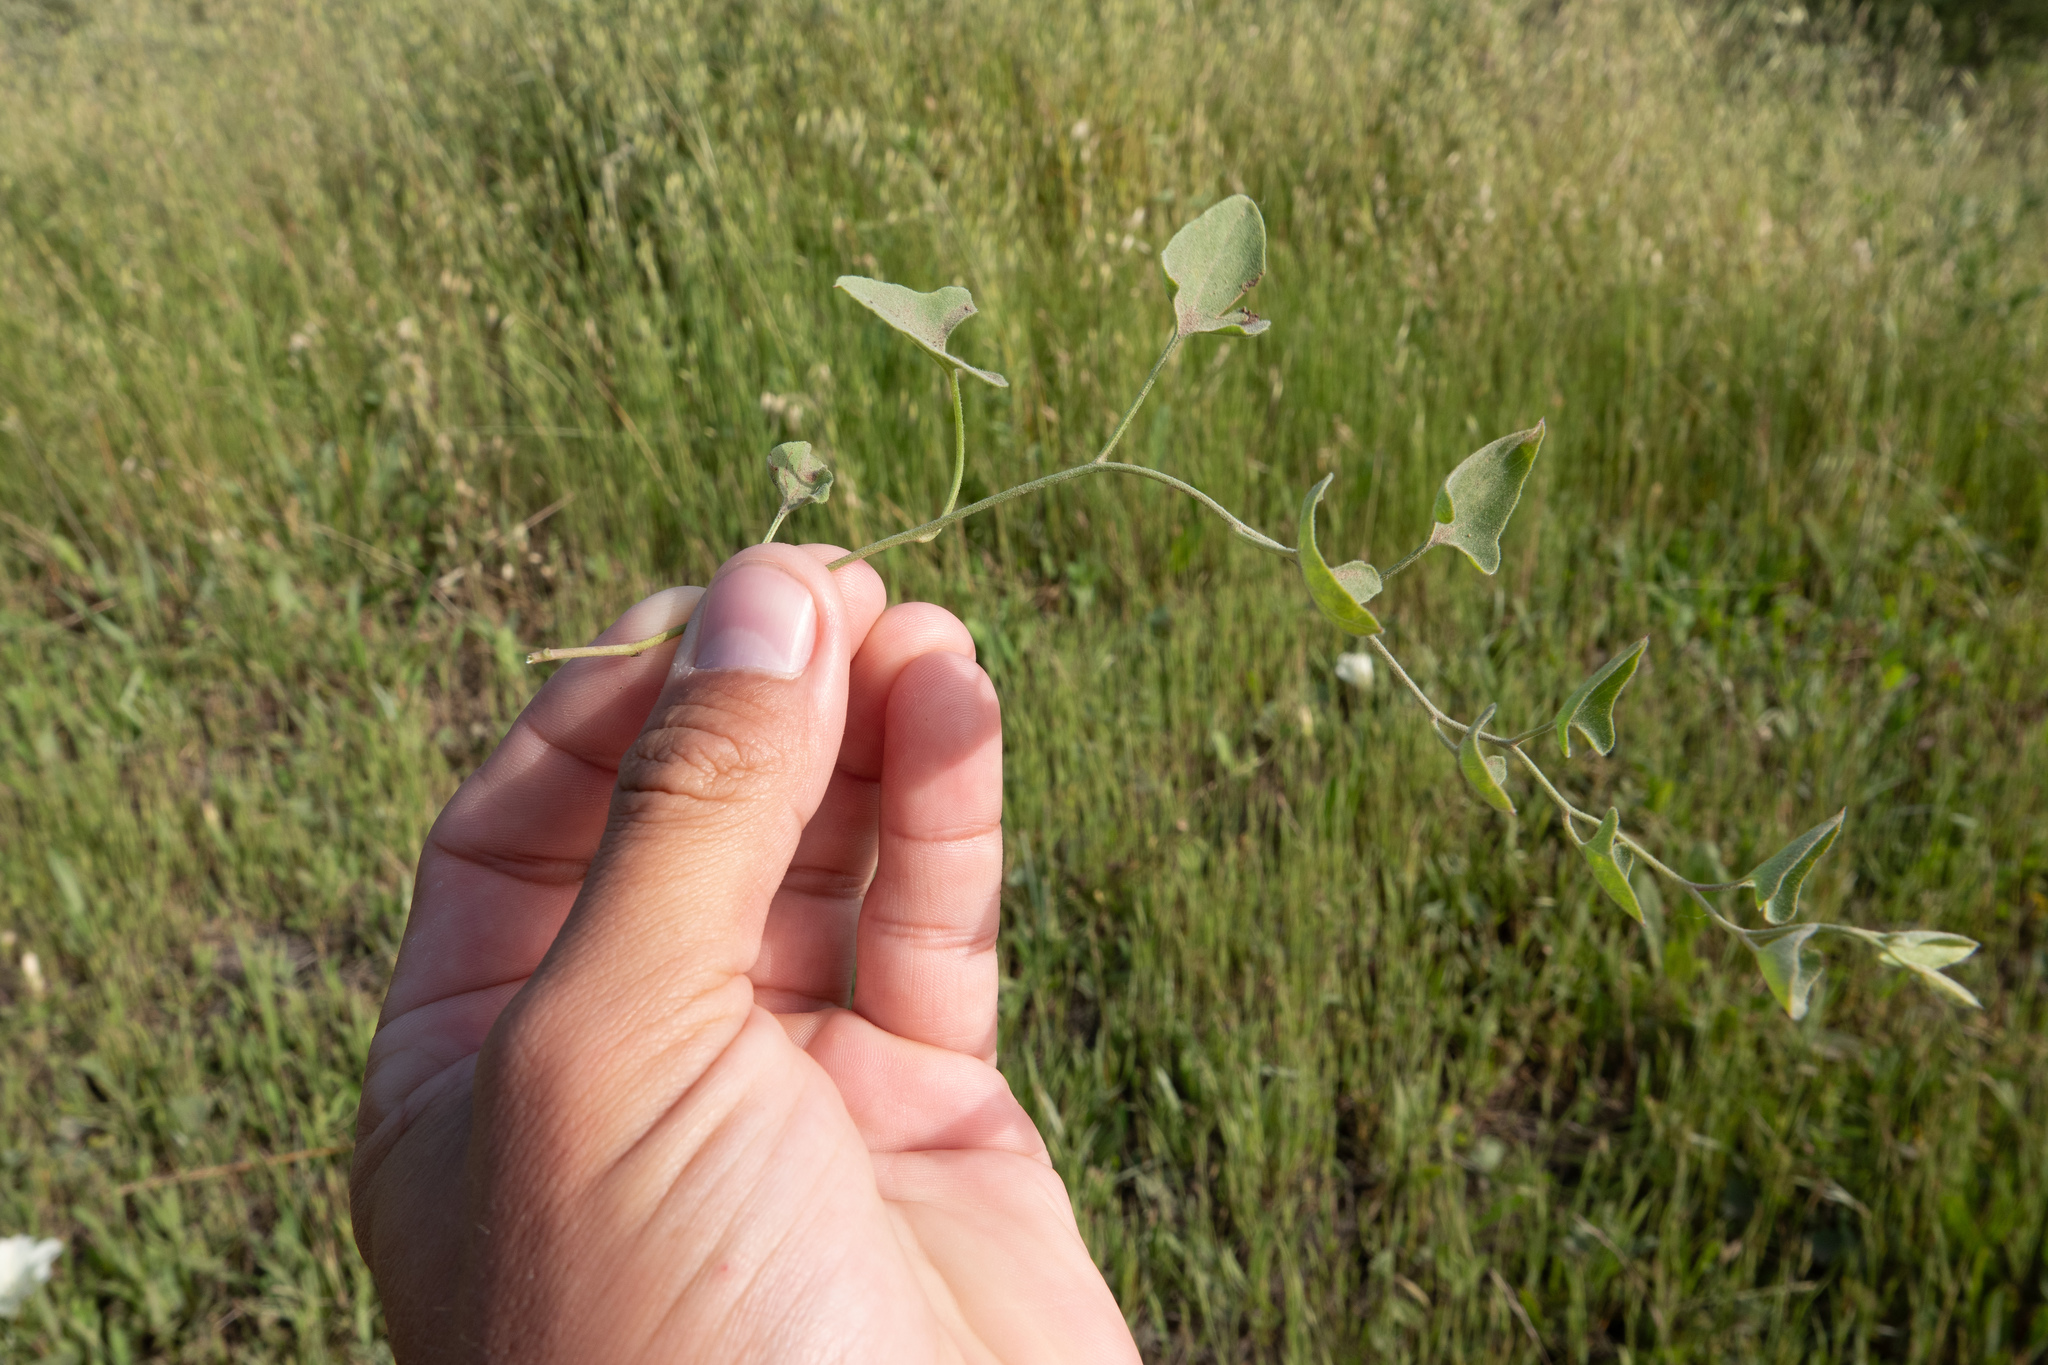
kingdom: Plantae
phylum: Tracheophyta
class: Magnoliopsida
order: Solanales
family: Convolvulaceae
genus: Calystegia
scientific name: Calystegia subacaulis
